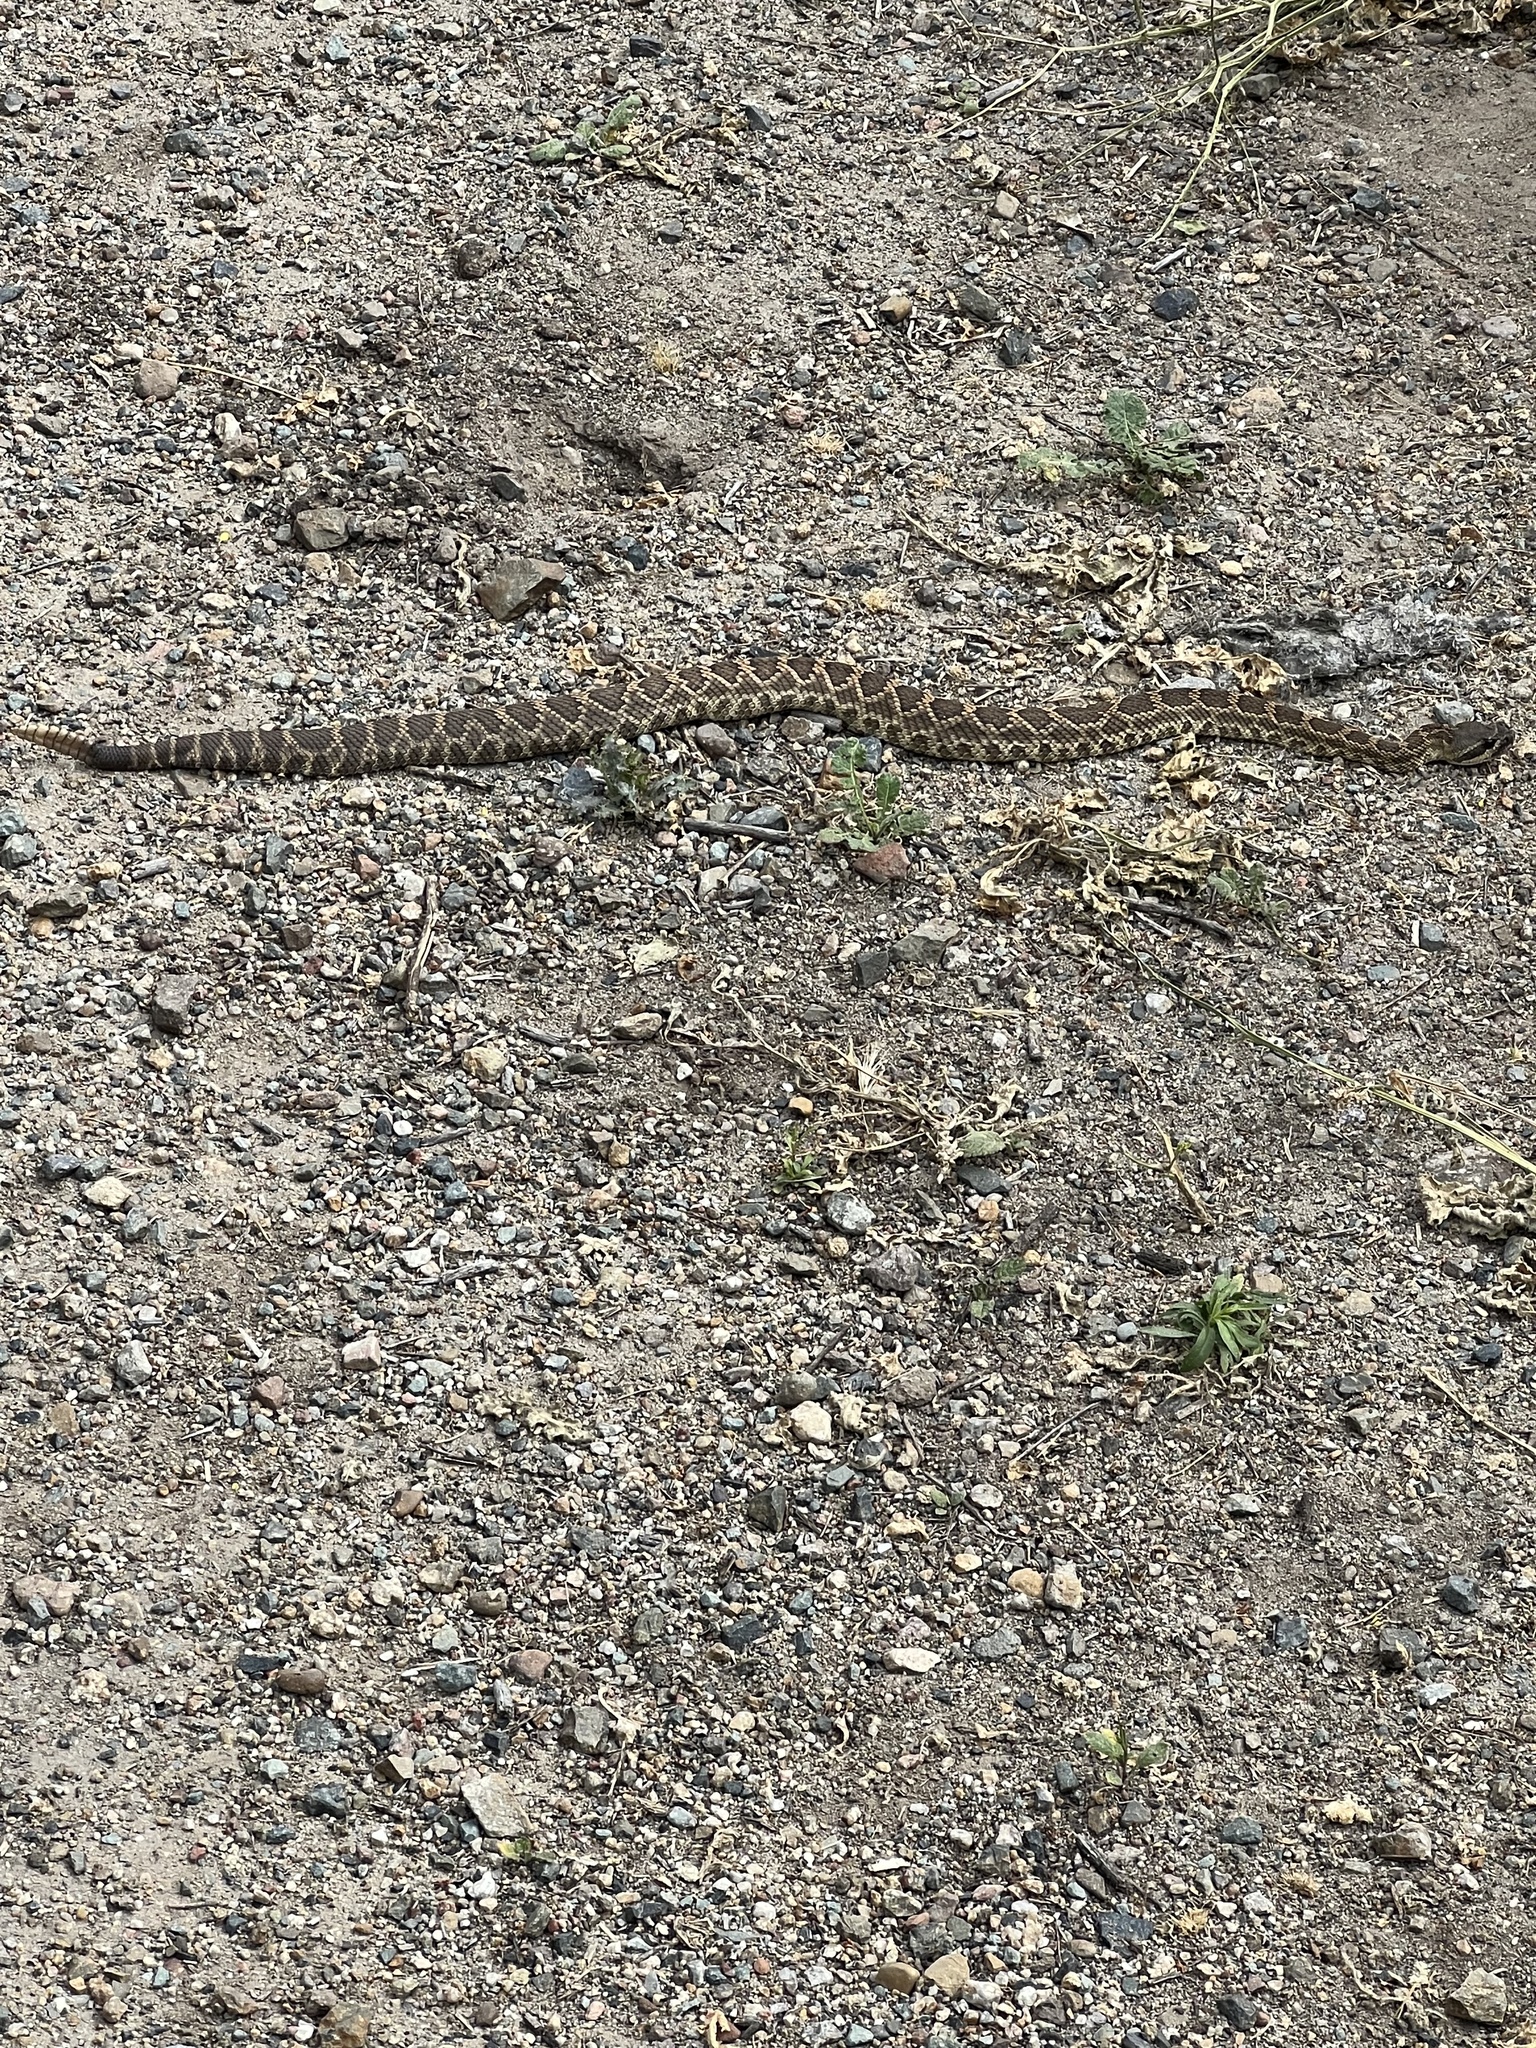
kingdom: Animalia
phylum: Chordata
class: Squamata
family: Viperidae
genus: Crotalus
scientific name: Crotalus oreganus
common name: Abyssus
